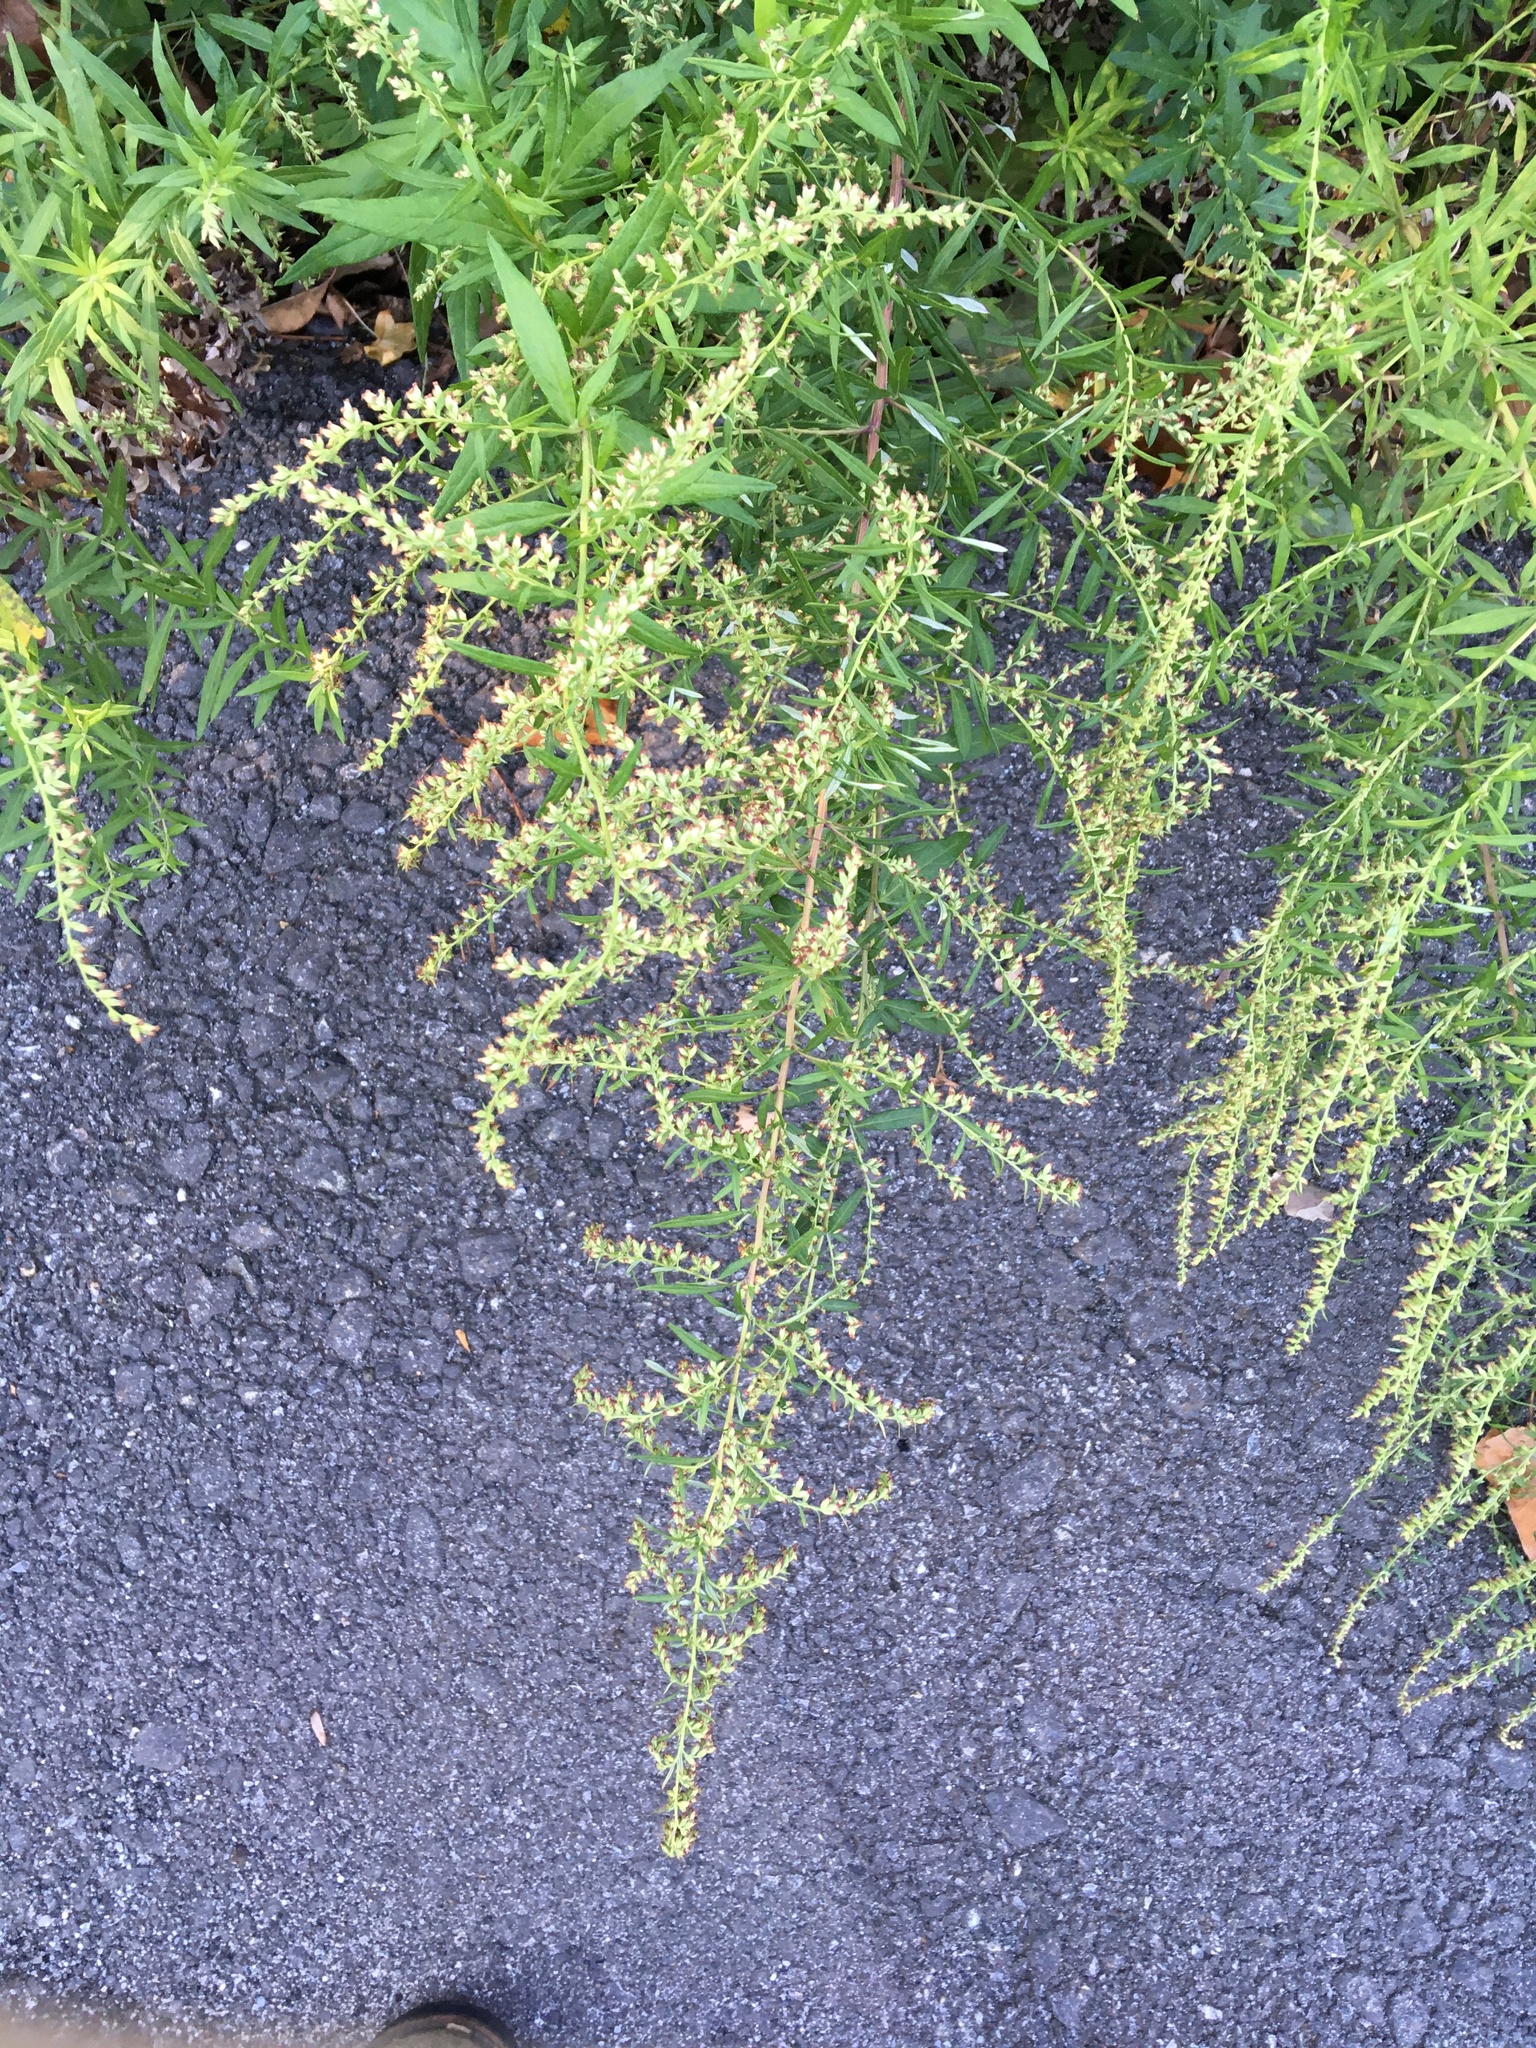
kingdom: Plantae
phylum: Tracheophyta
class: Magnoliopsida
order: Asterales
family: Asteraceae
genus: Artemisia
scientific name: Artemisia vulgaris
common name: Mugwort
